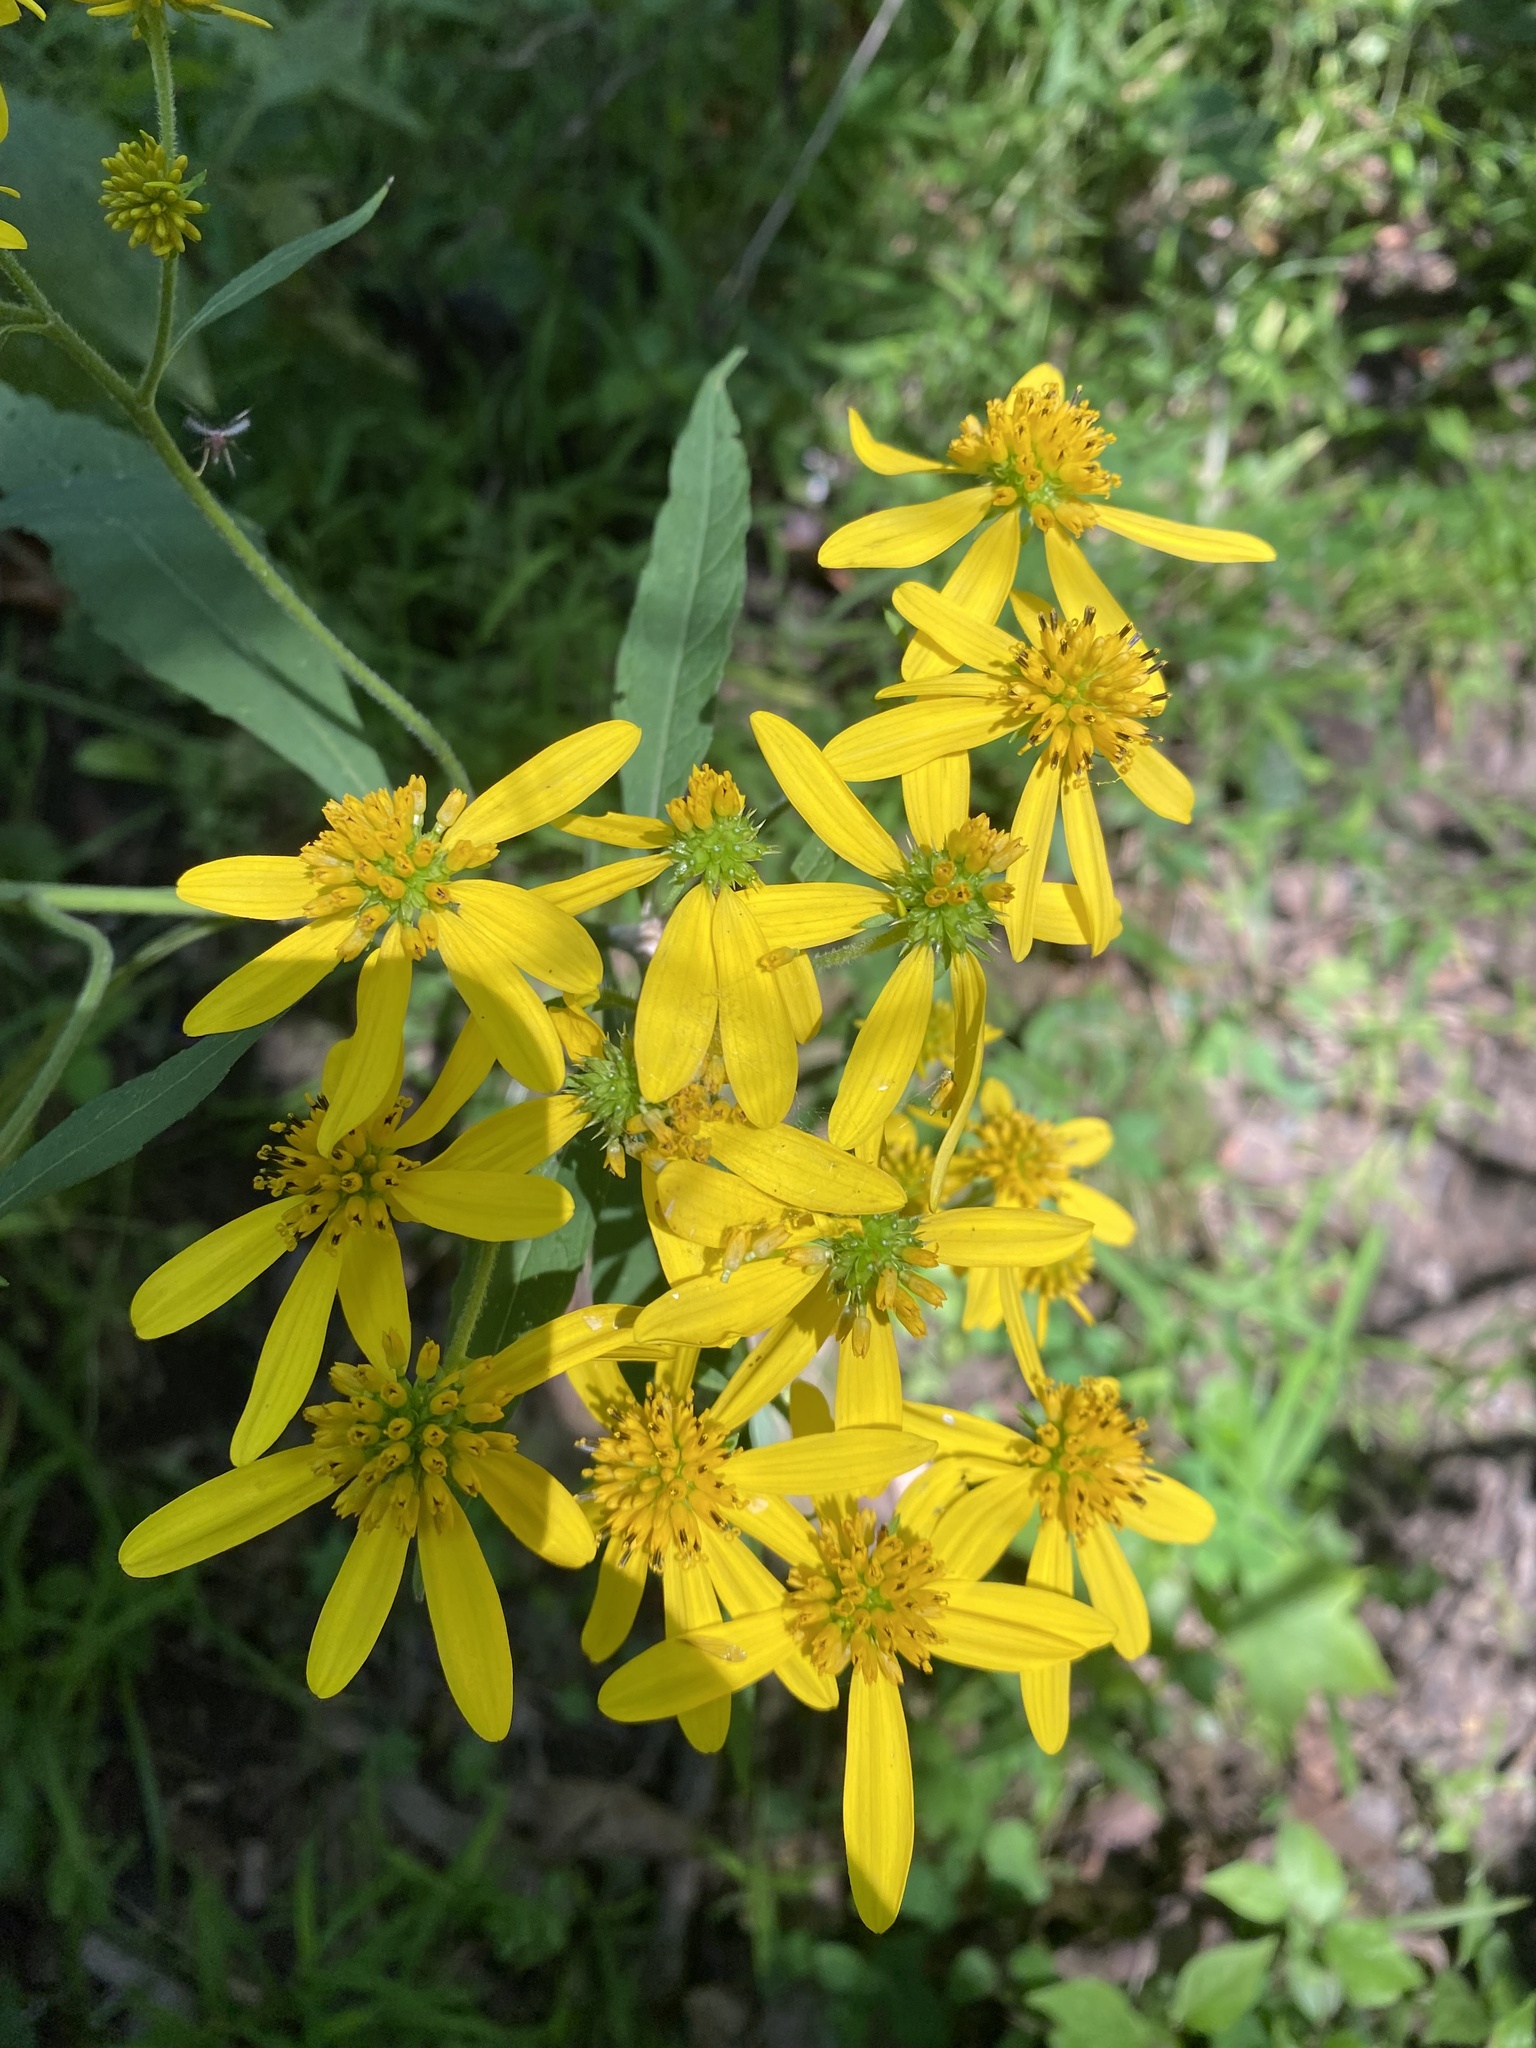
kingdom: Plantae
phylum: Tracheophyta
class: Magnoliopsida
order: Asterales
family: Asteraceae
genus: Verbesina
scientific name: Verbesina alternifolia
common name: Wingstem
